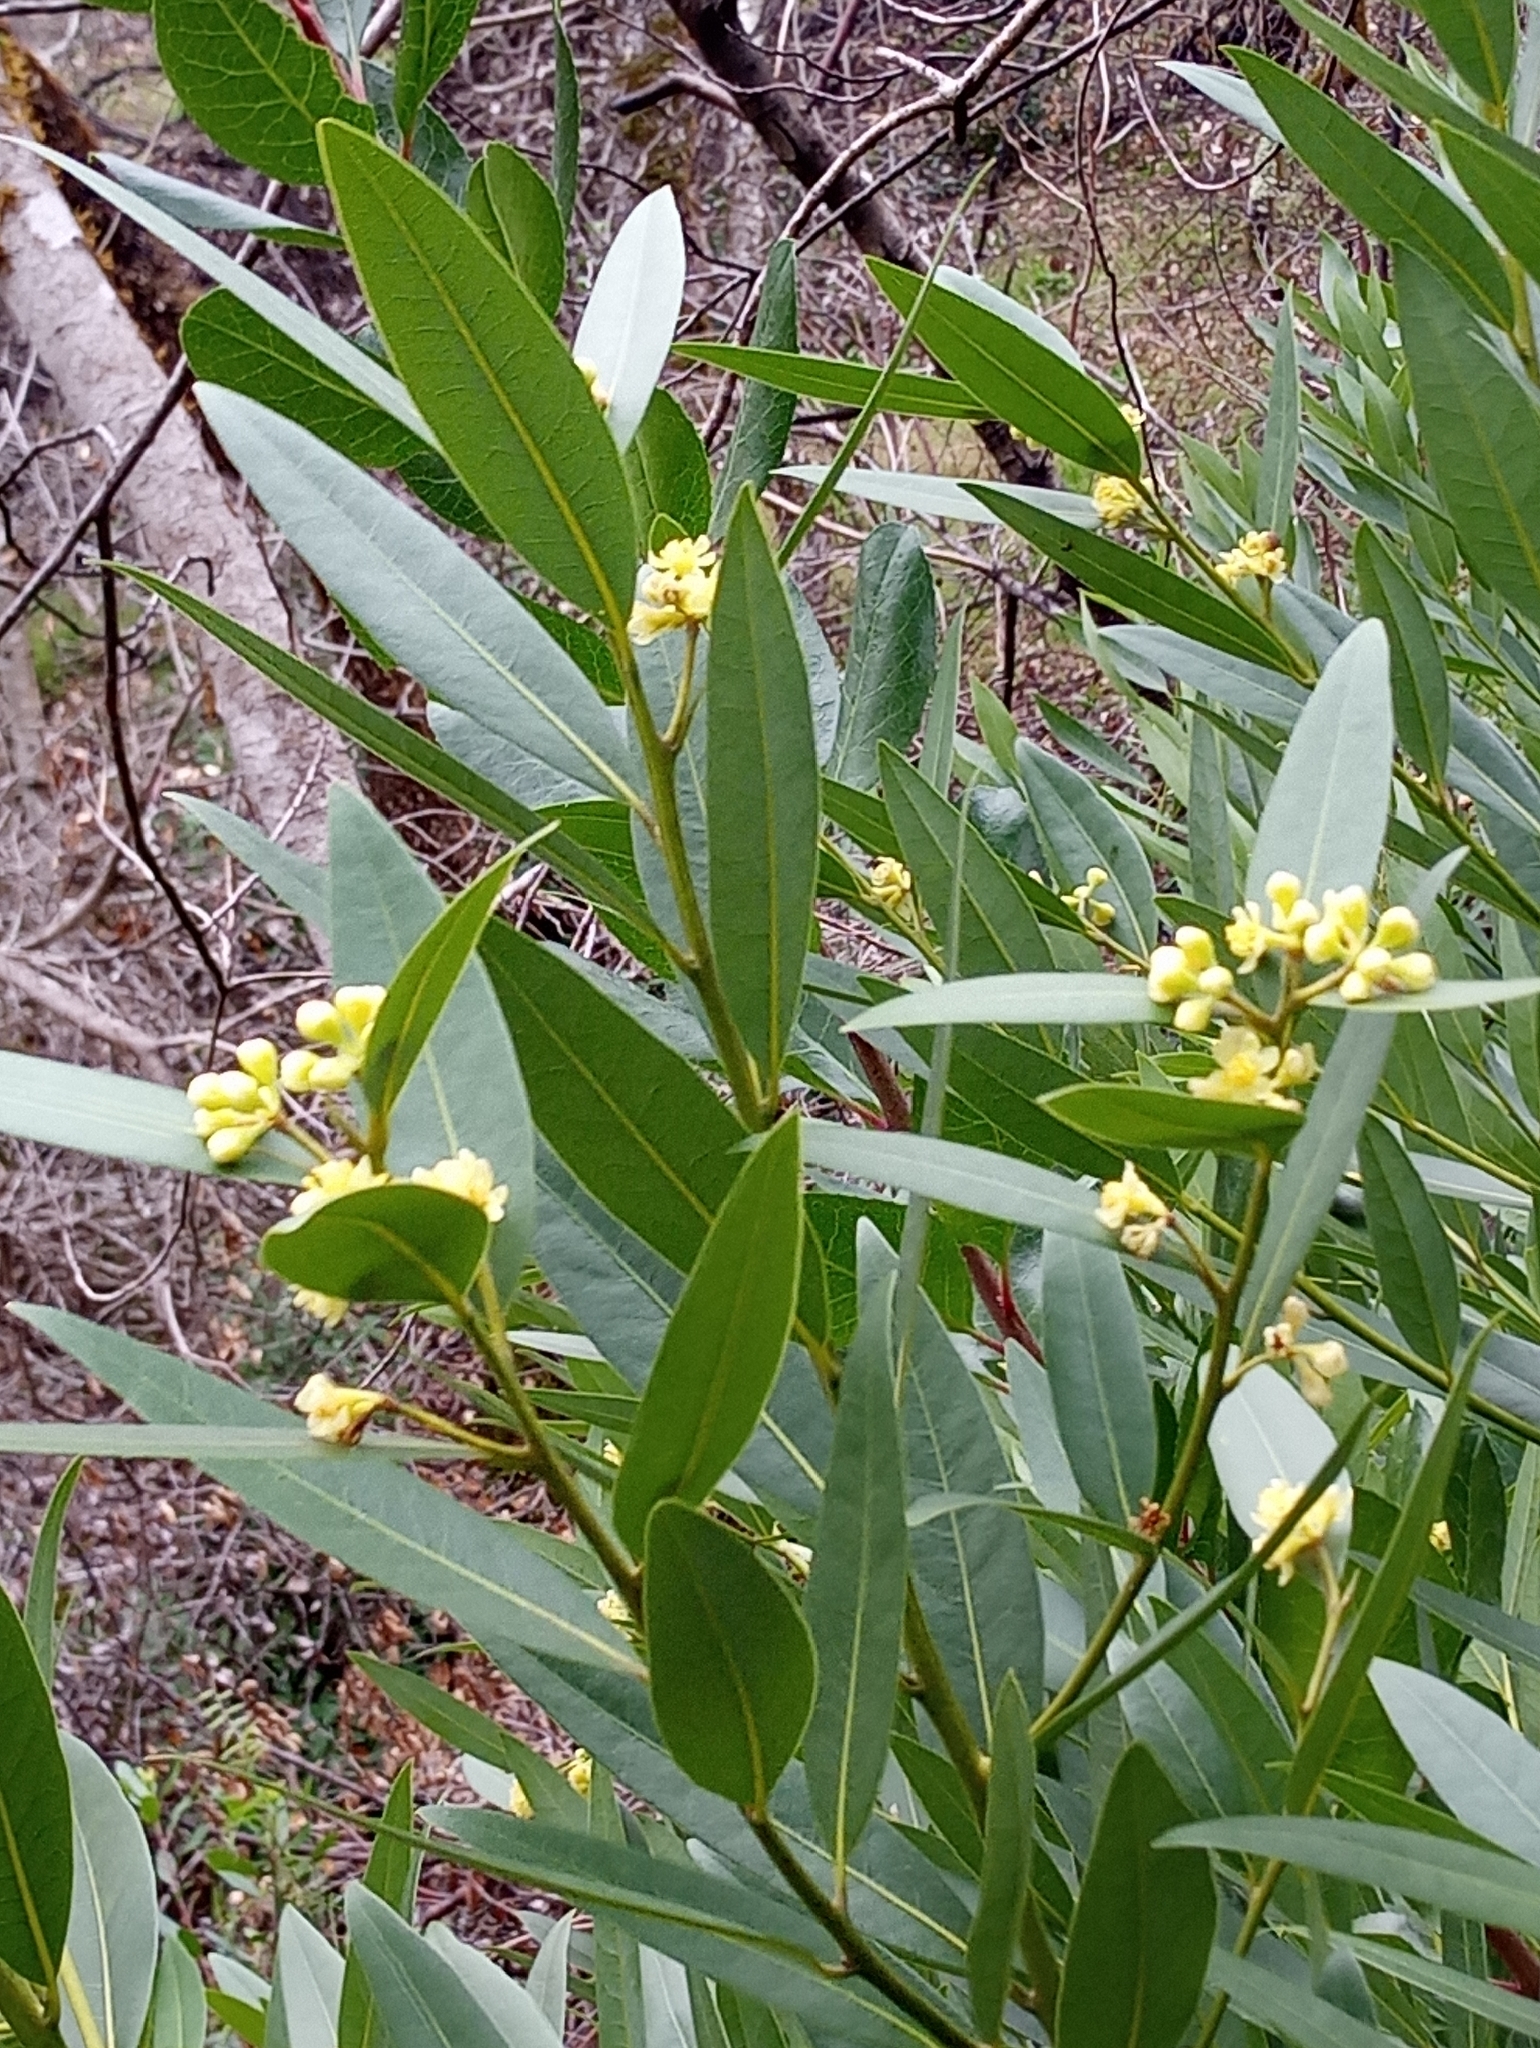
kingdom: Plantae
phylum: Tracheophyta
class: Magnoliopsida
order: Laurales
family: Lauraceae
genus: Umbellularia
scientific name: Umbellularia californica
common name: California bay
